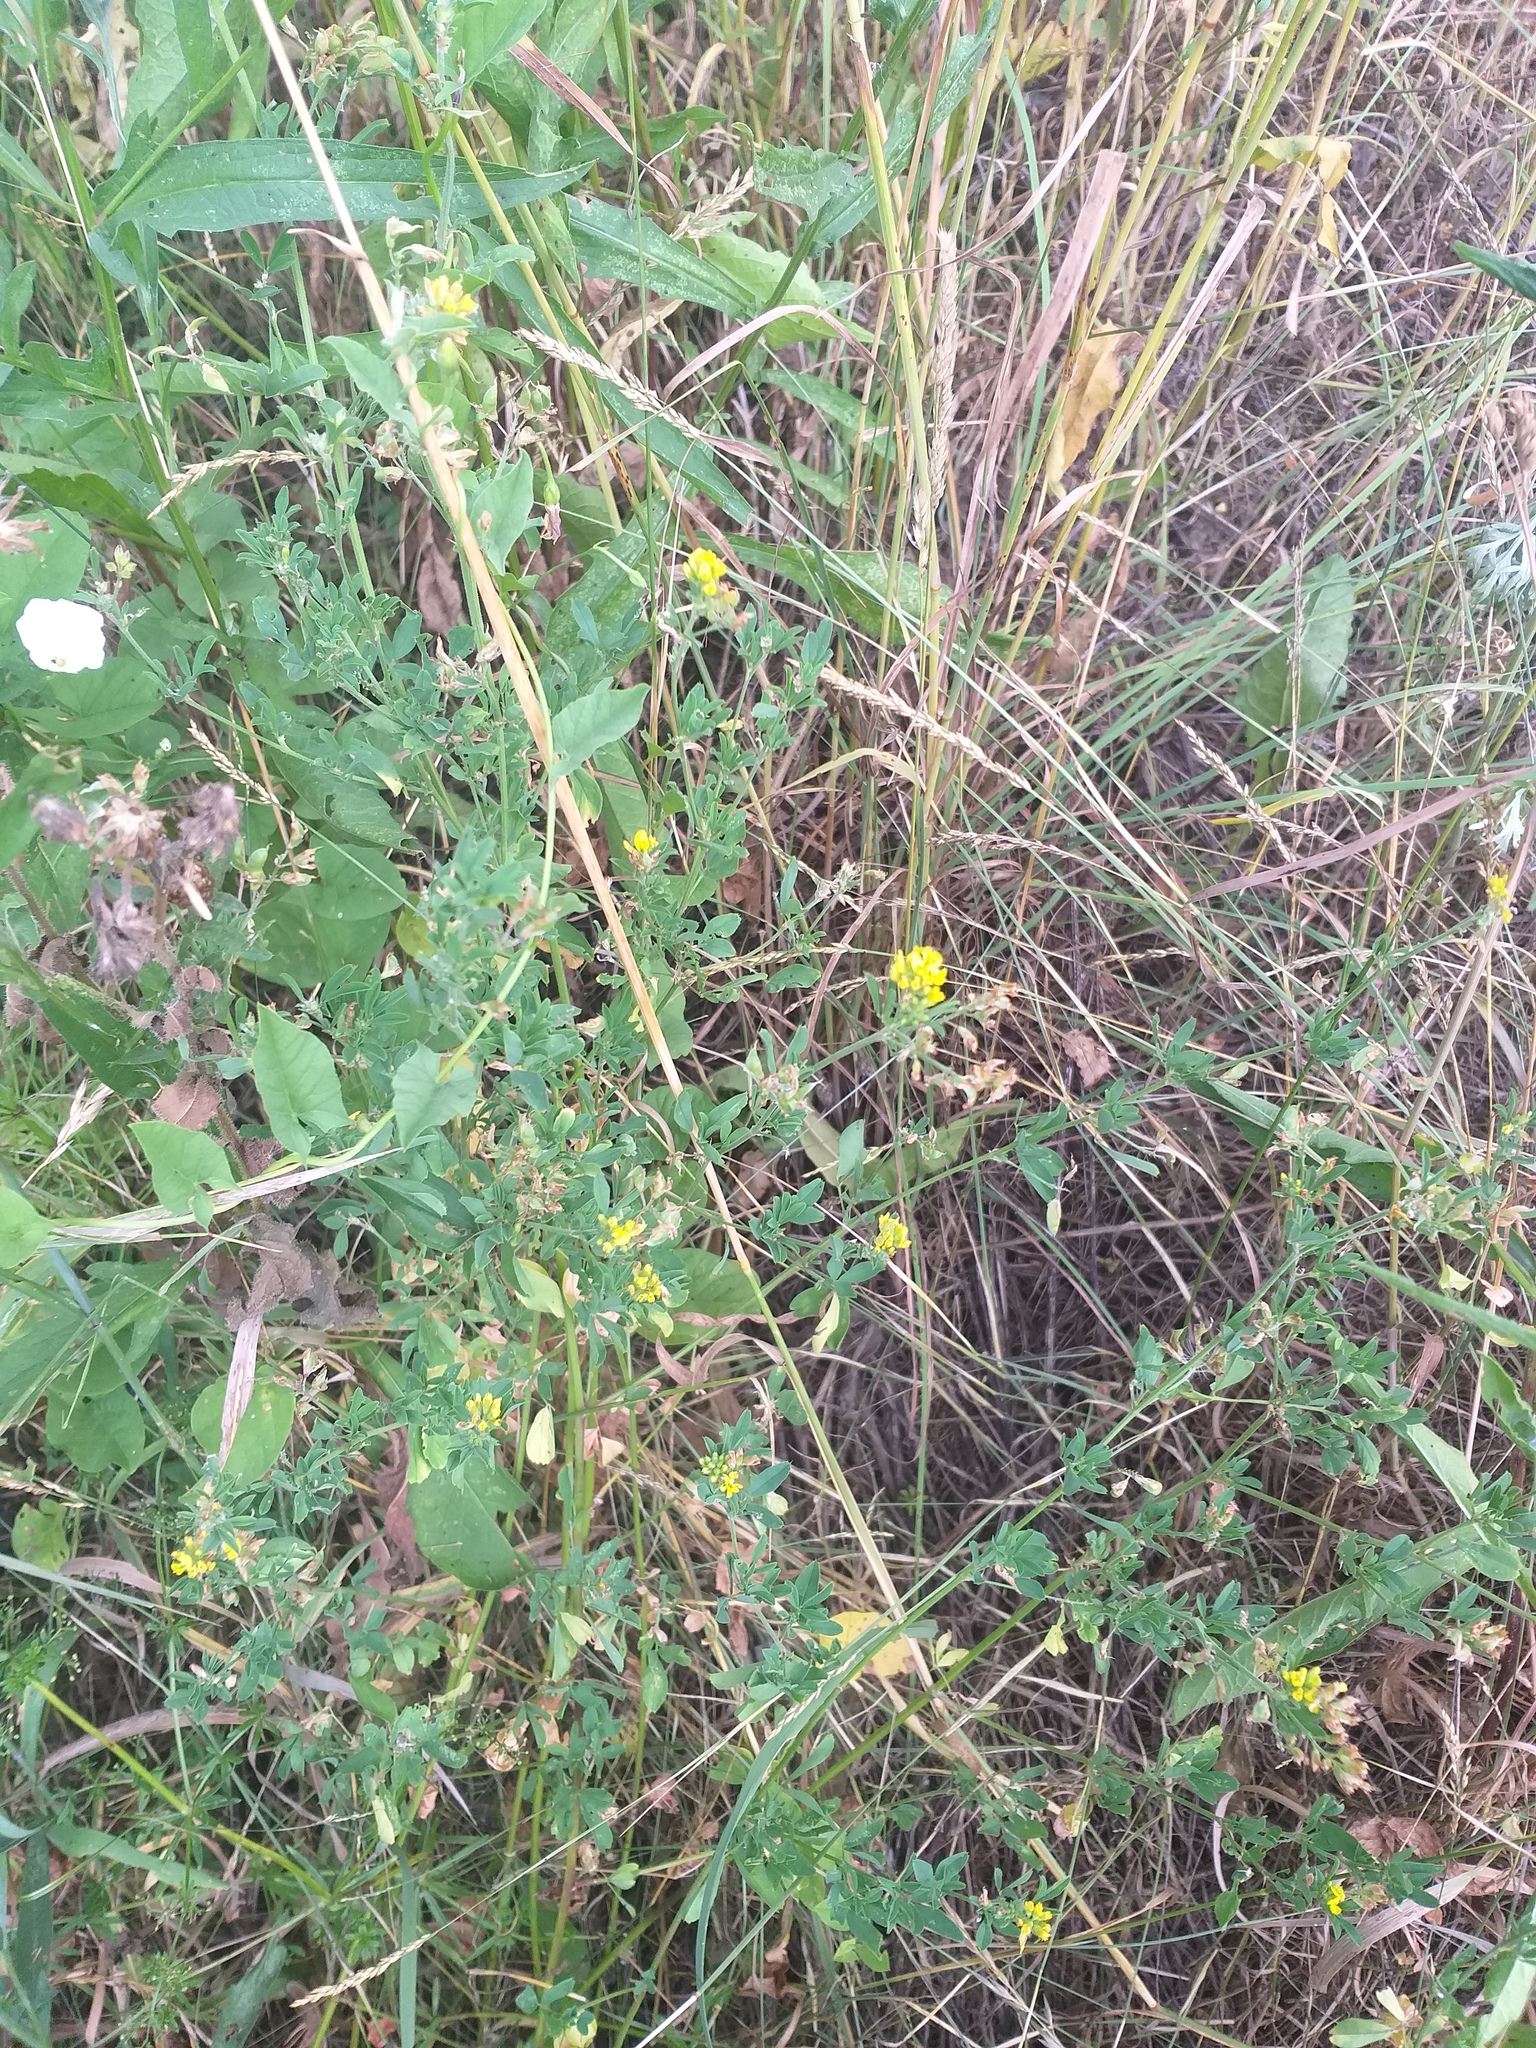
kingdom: Plantae
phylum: Tracheophyta
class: Magnoliopsida
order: Fabales
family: Fabaceae
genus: Medicago
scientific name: Medicago falcata
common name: Sickle medick
